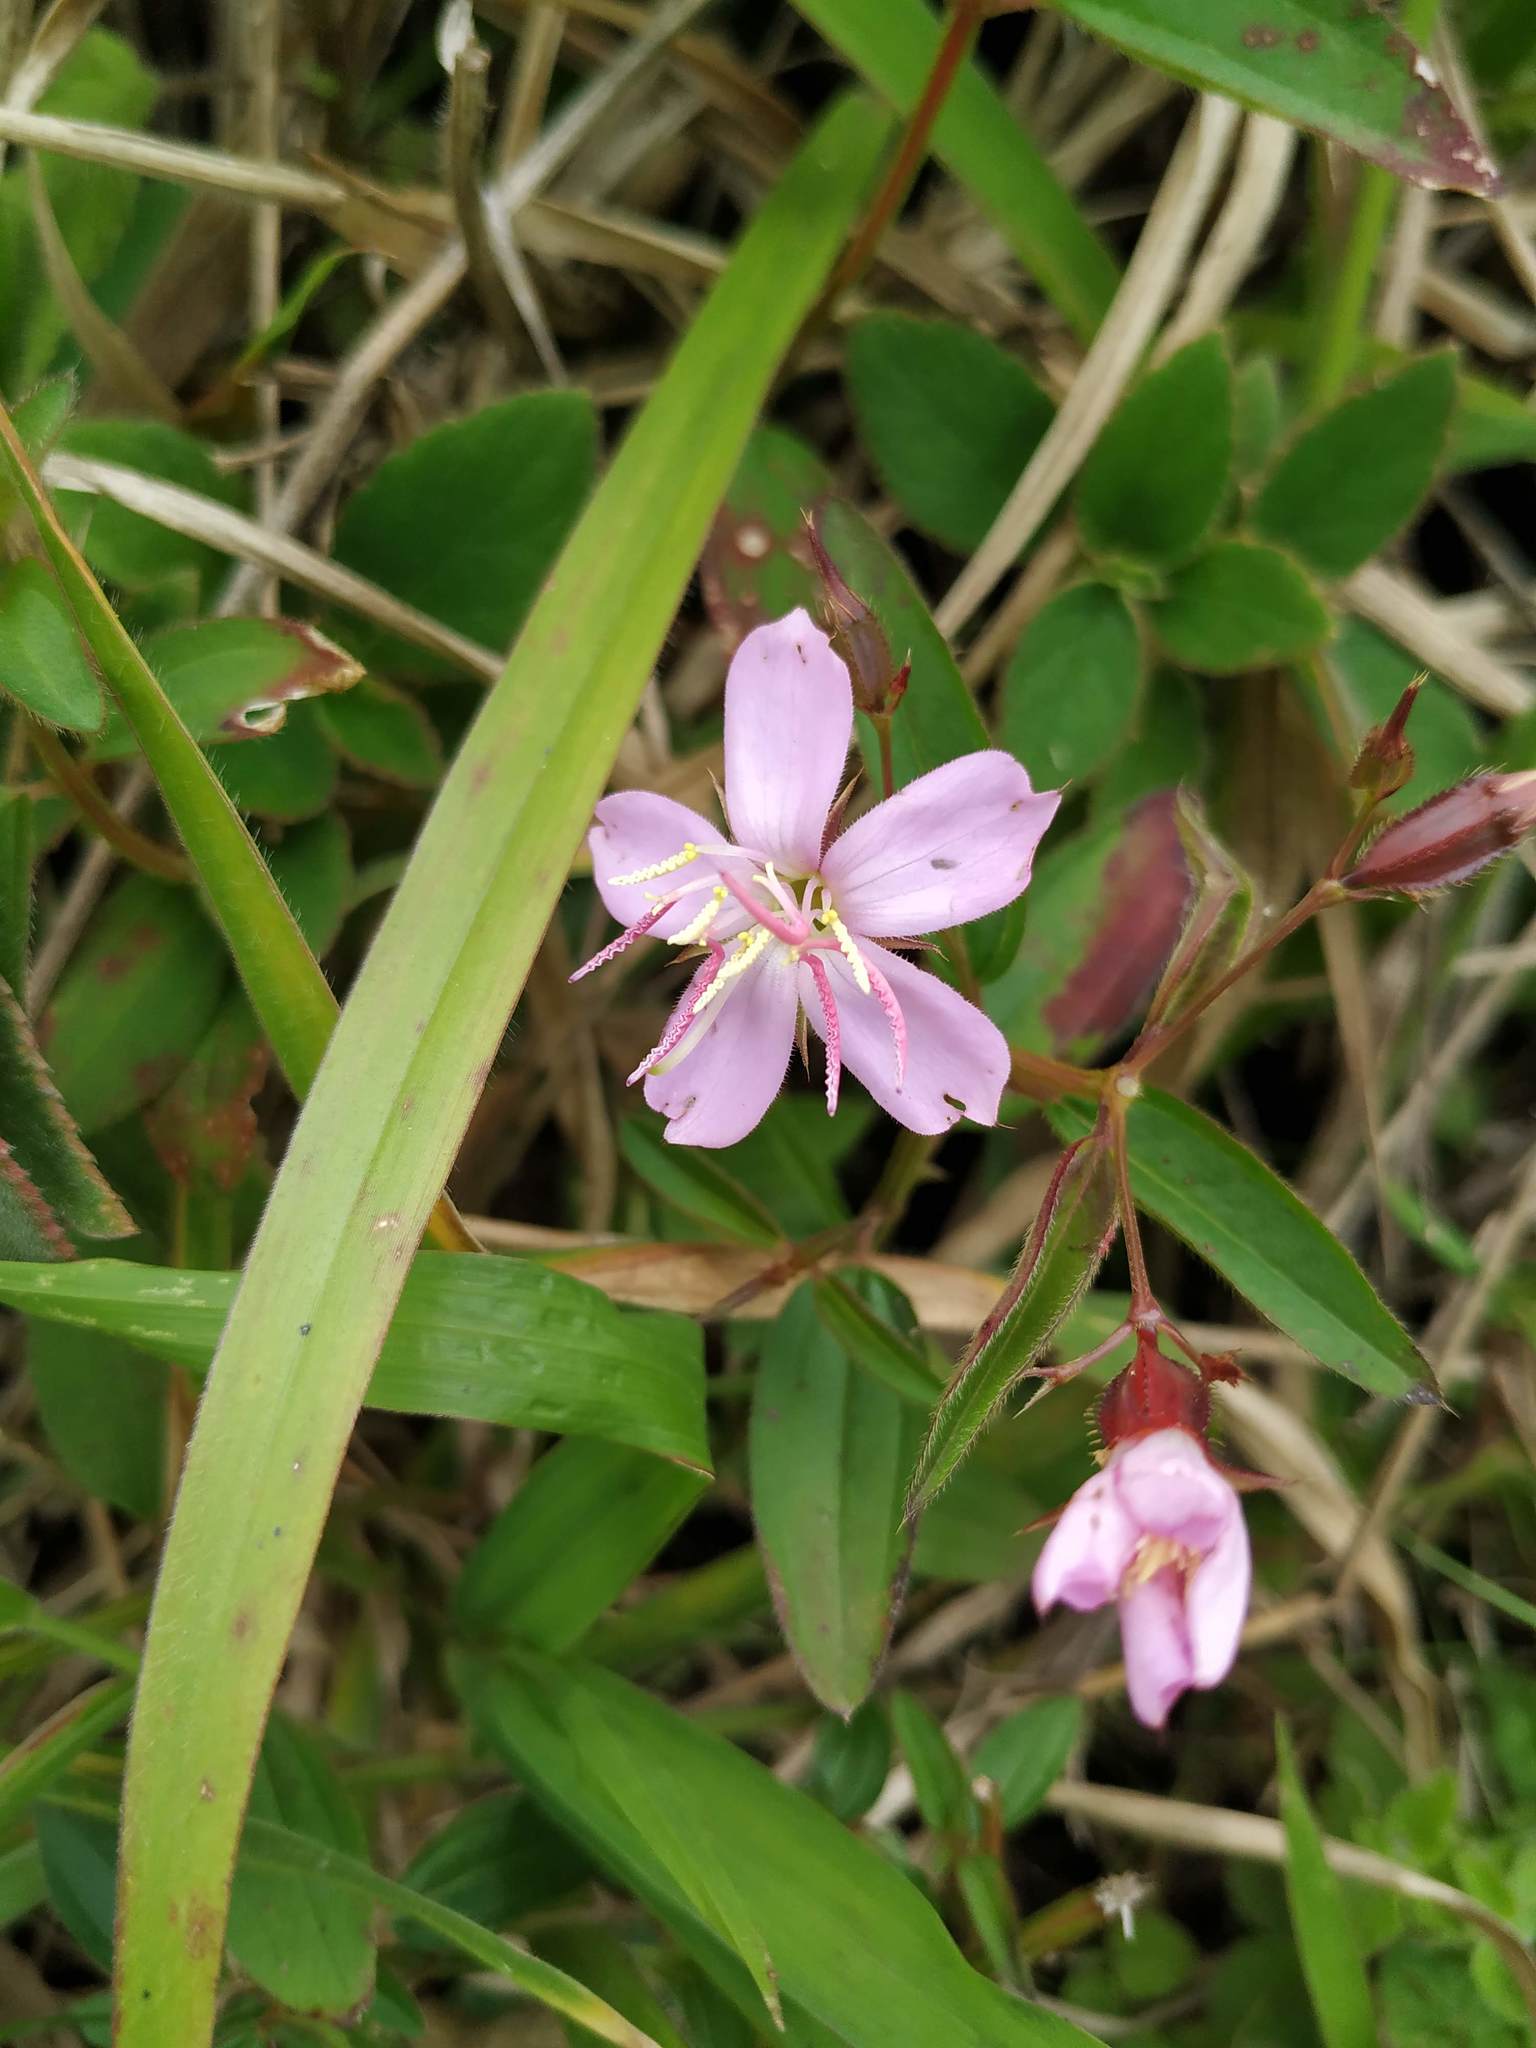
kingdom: Plantae
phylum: Tracheophyta
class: Magnoliopsida
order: Myrtales
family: Melastomataceae
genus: Pterogastra
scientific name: Pterogastra divaricata
